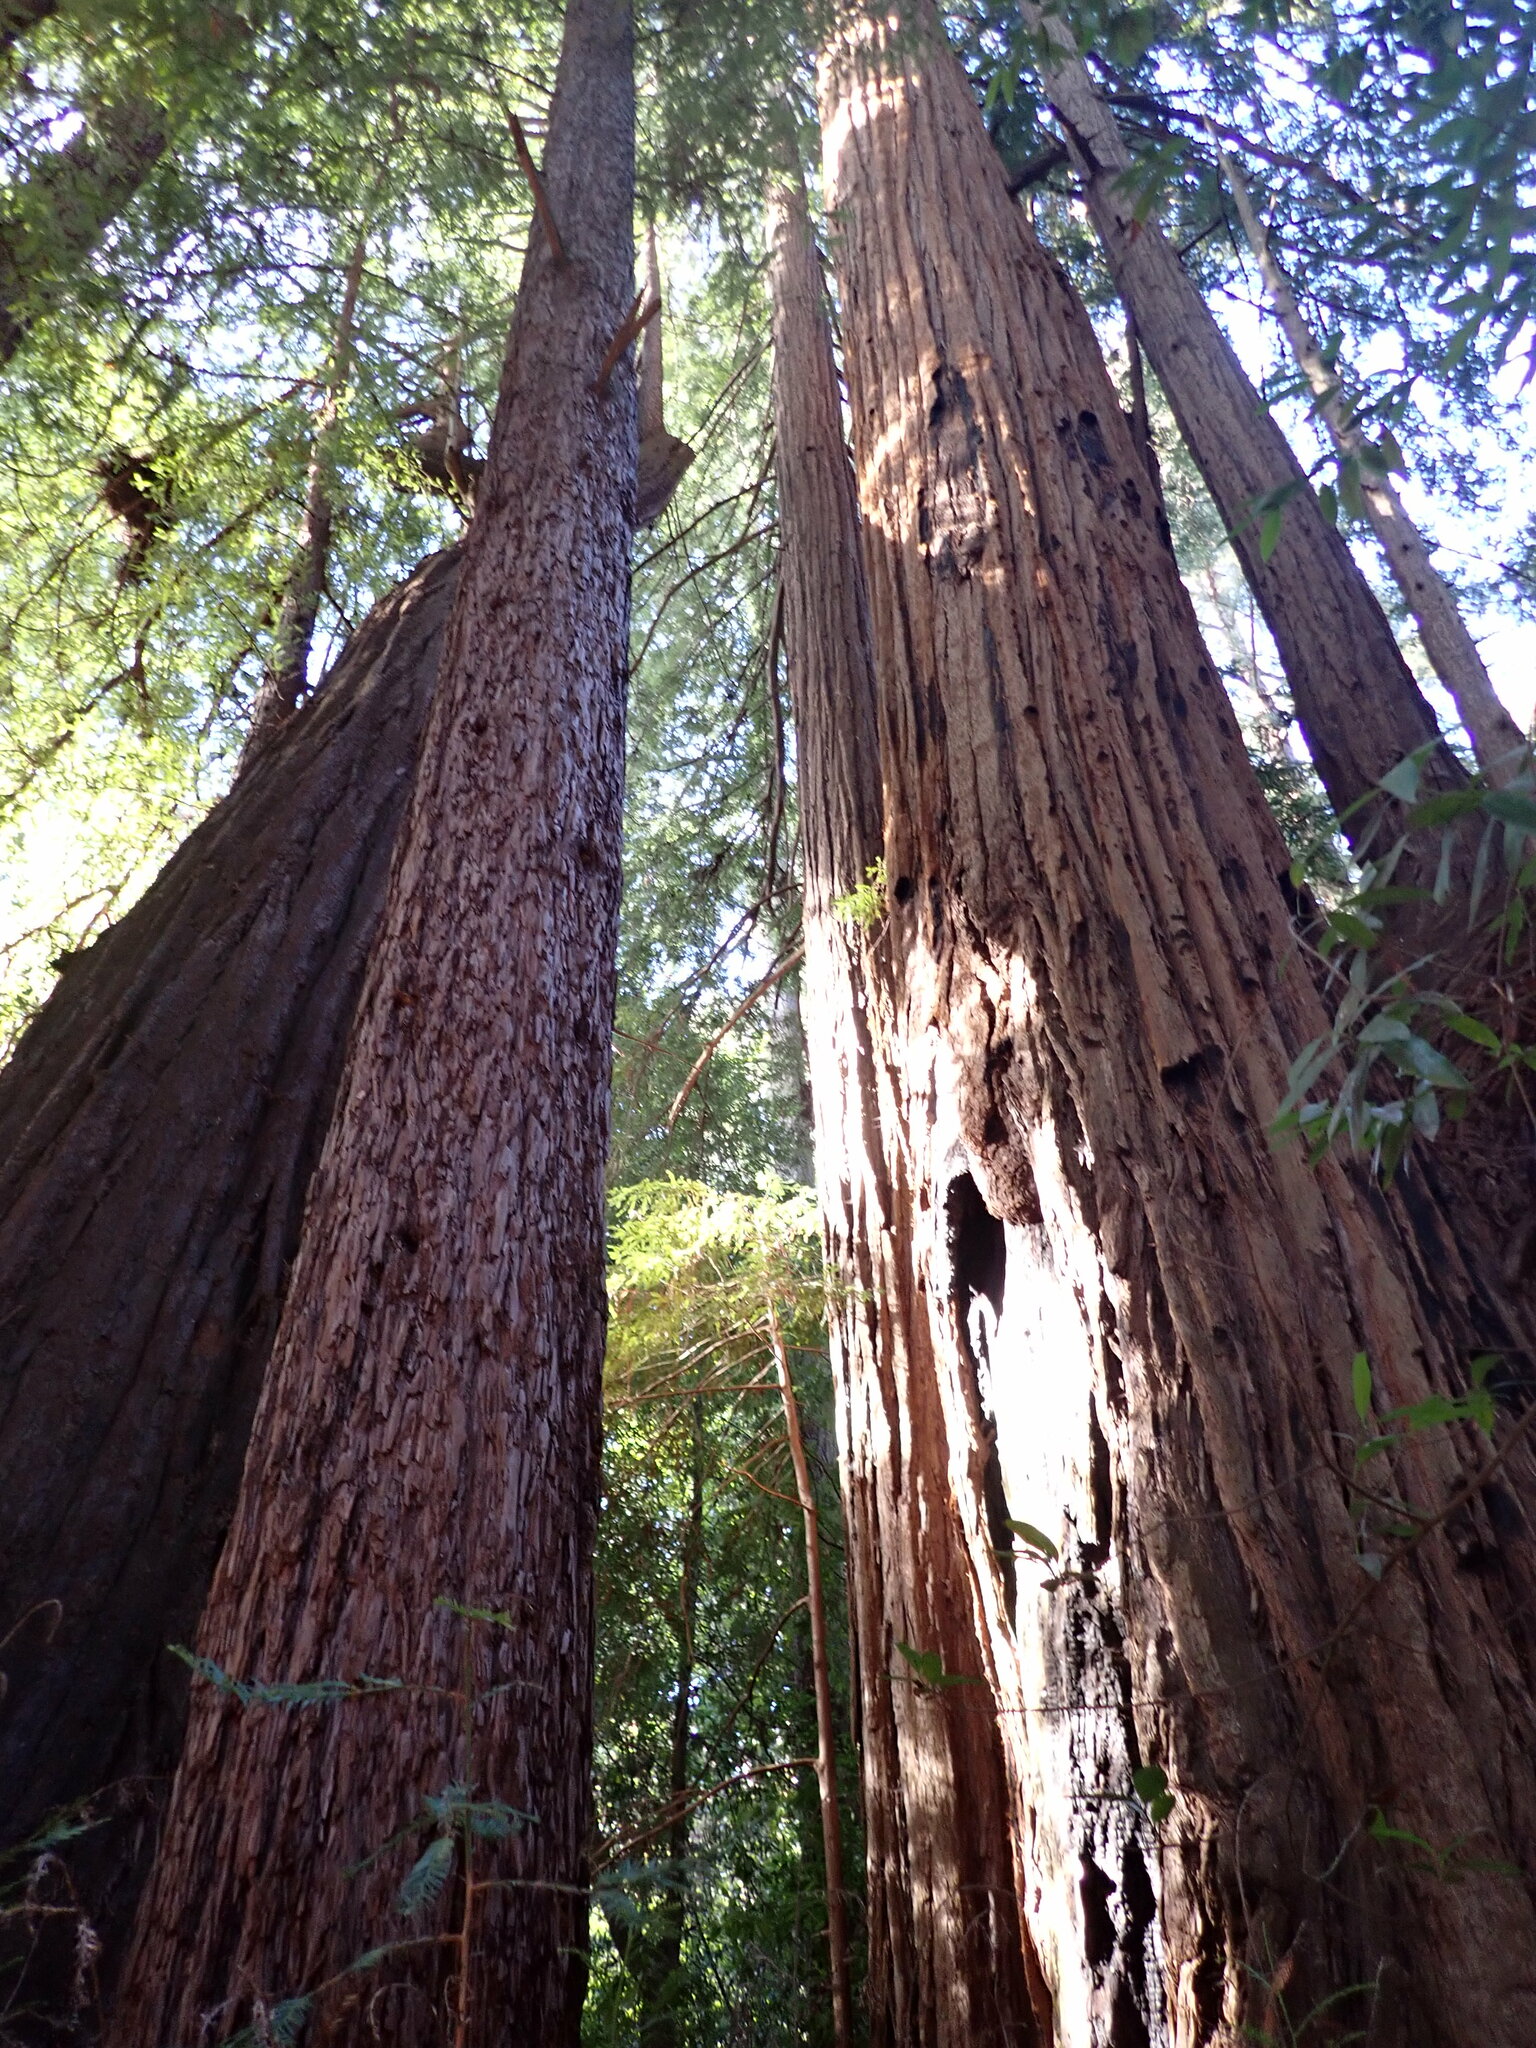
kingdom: Plantae
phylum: Tracheophyta
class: Pinopsida
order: Pinales
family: Cupressaceae
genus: Sequoia
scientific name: Sequoia sempervirens
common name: Coast redwood
